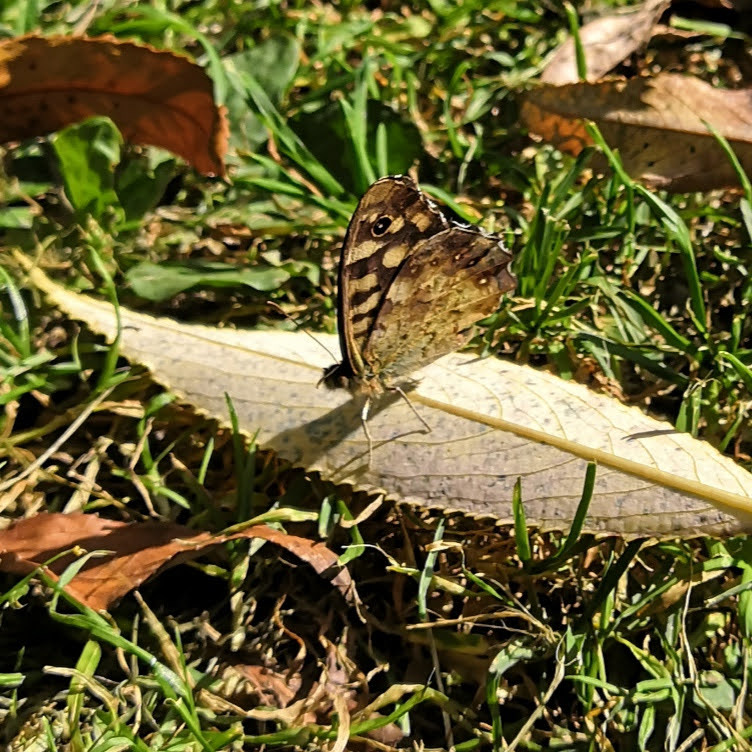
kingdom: Animalia
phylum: Arthropoda
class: Insecta
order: Lepidoptera
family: Nymphalidae
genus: Pararge
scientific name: Pararge aegeria
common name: Speckled wood
